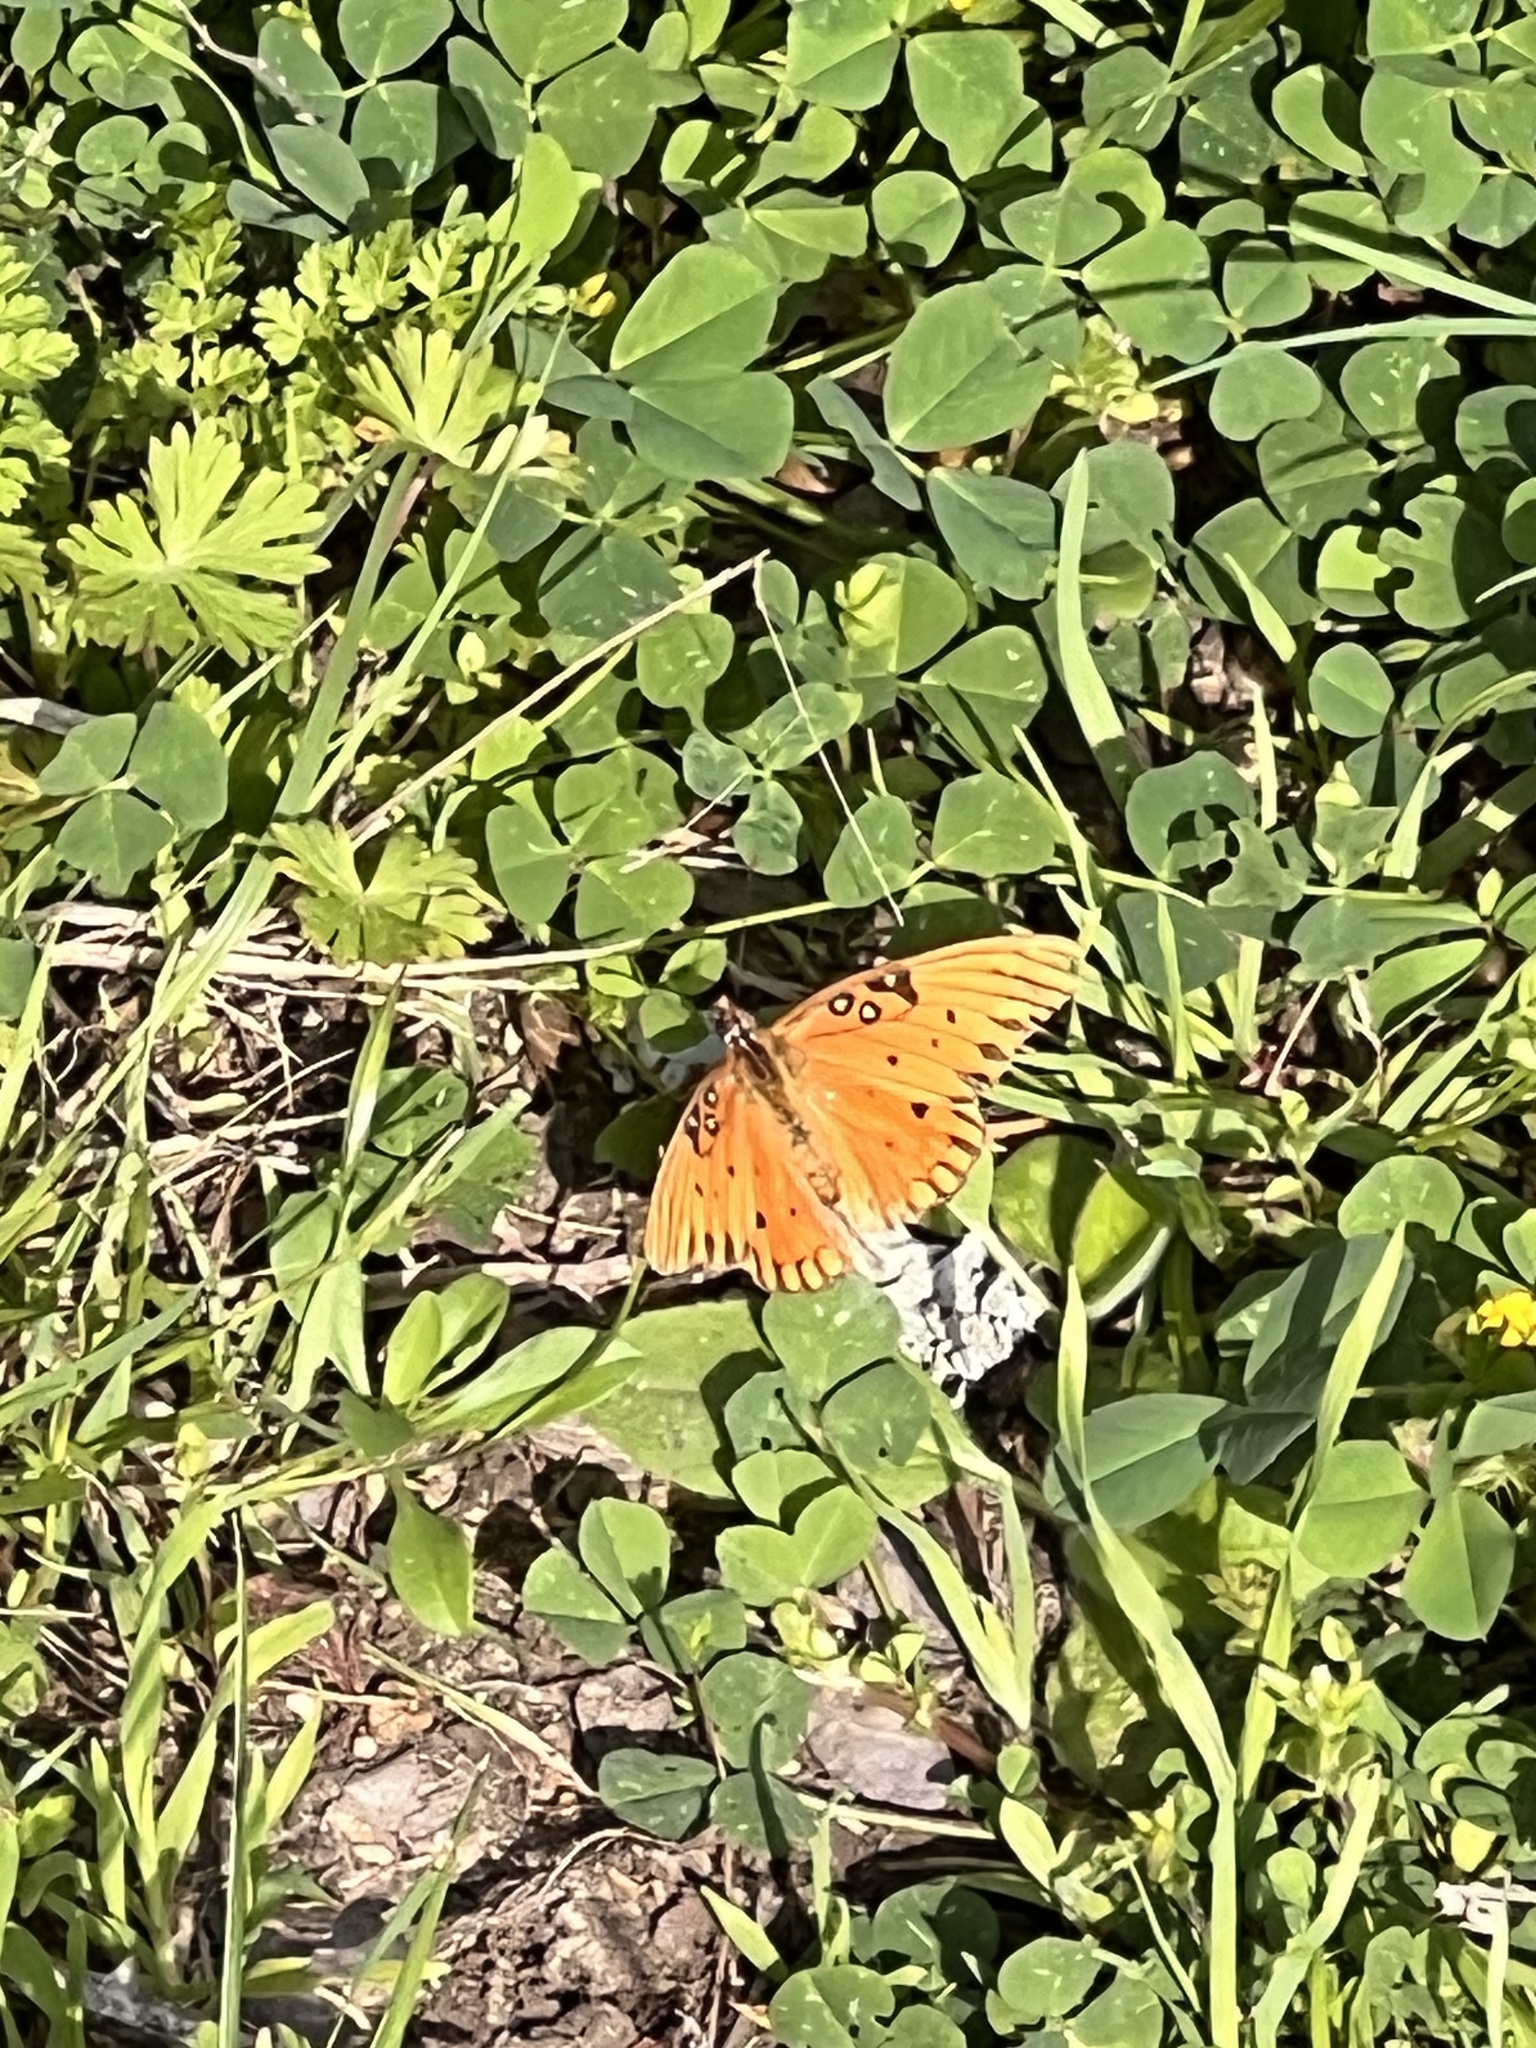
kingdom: Animalia
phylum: Arthropoda
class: Insecta
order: Lepidoptera
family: Nymphalidae
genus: Dione
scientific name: Dione vanillae
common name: Gulf fritillary
